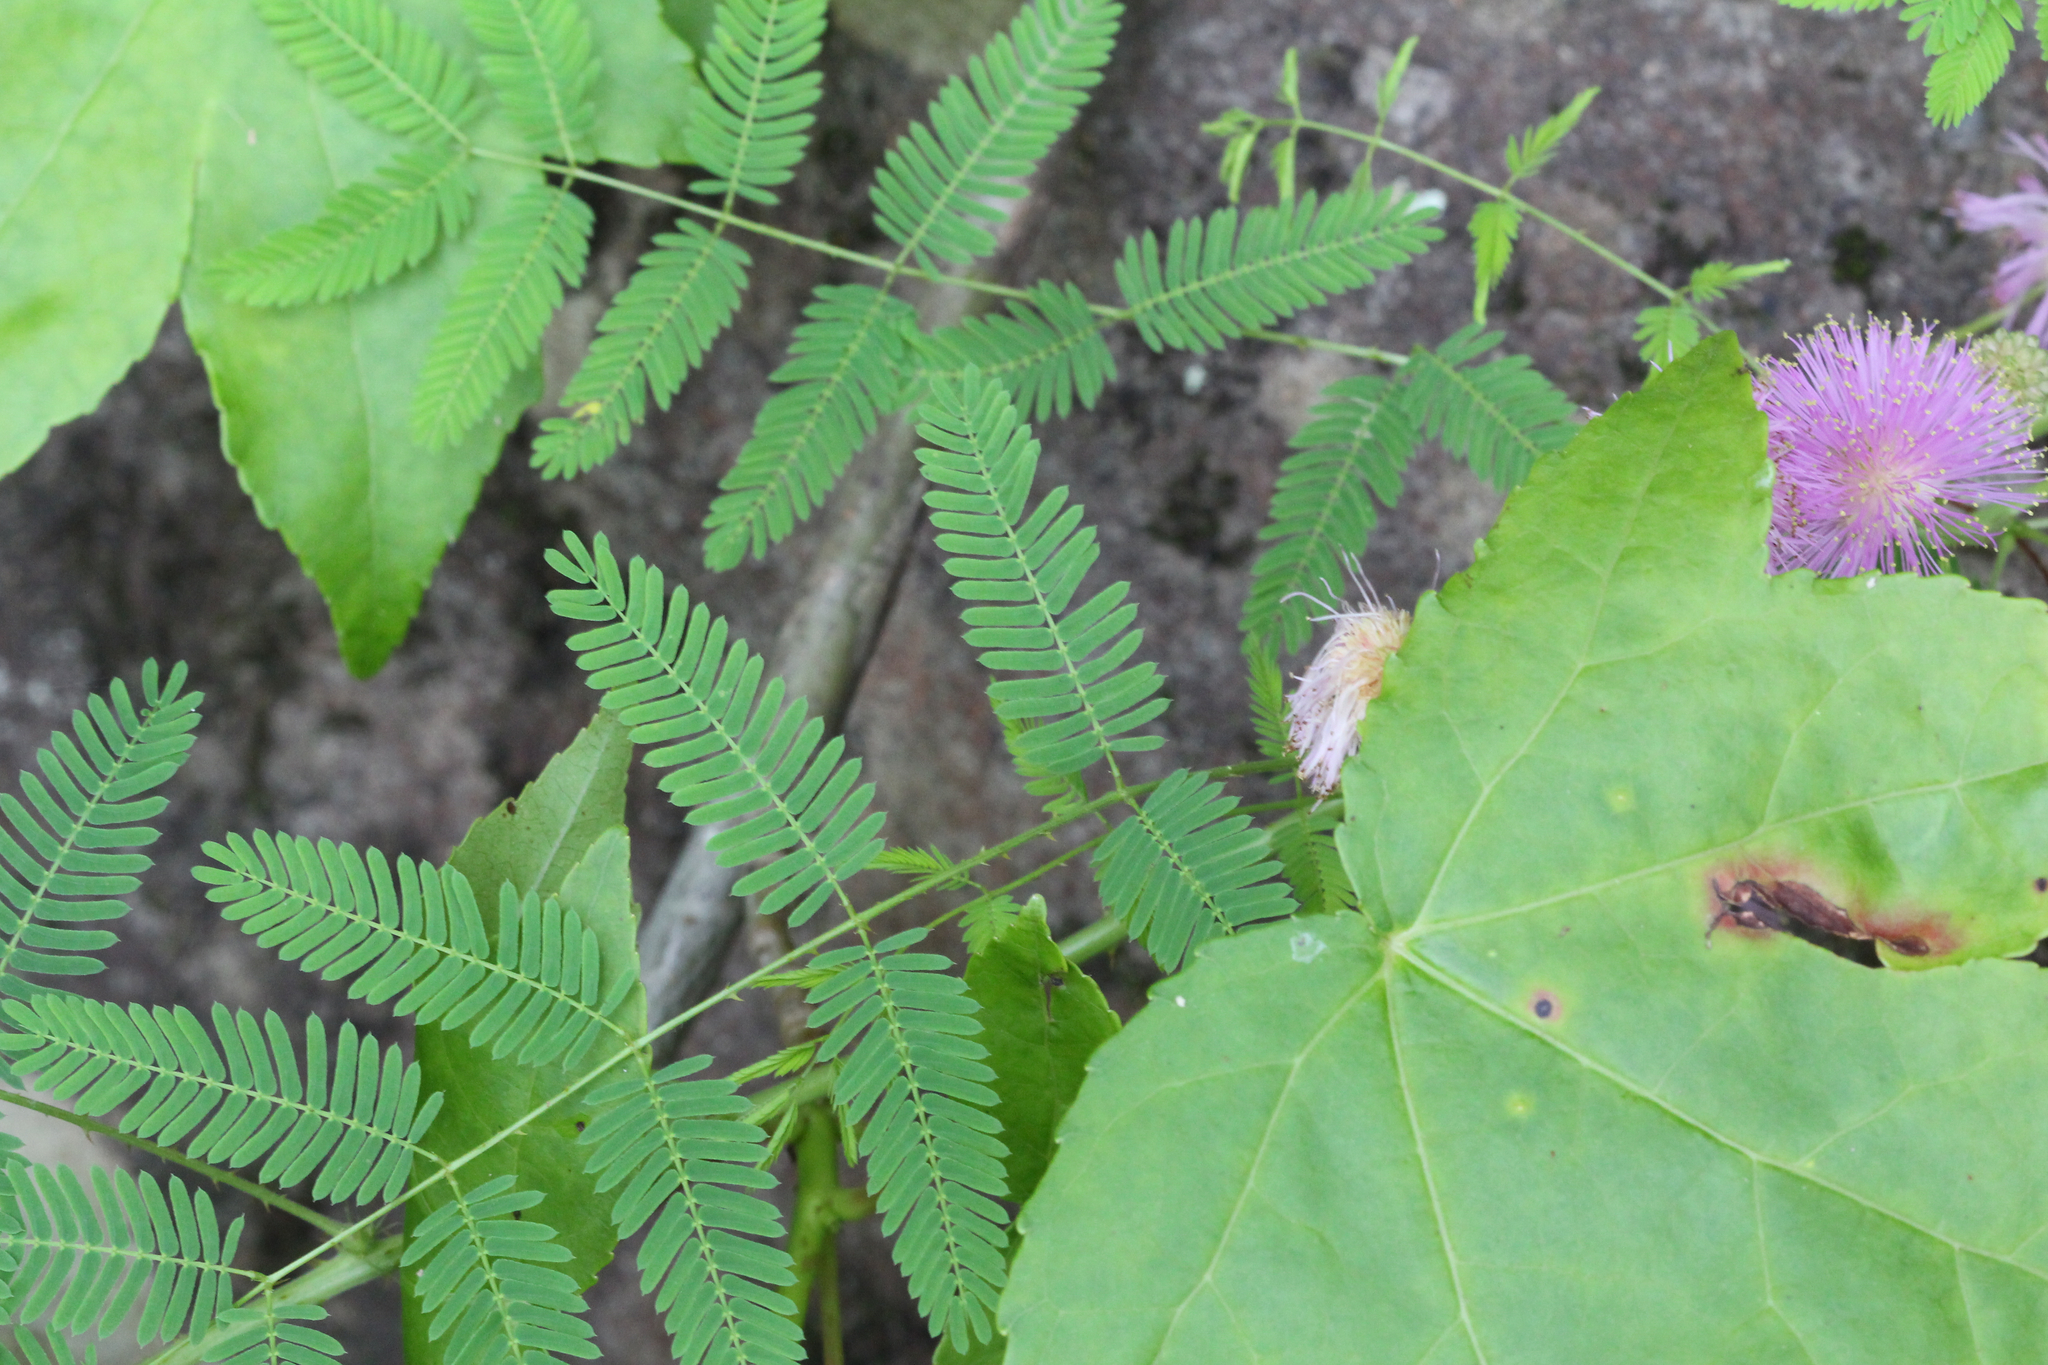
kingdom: Plantae
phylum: Tracheophyta
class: Magnoliopsida
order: Fabales
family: Fabaceae
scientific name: Fabaceae
